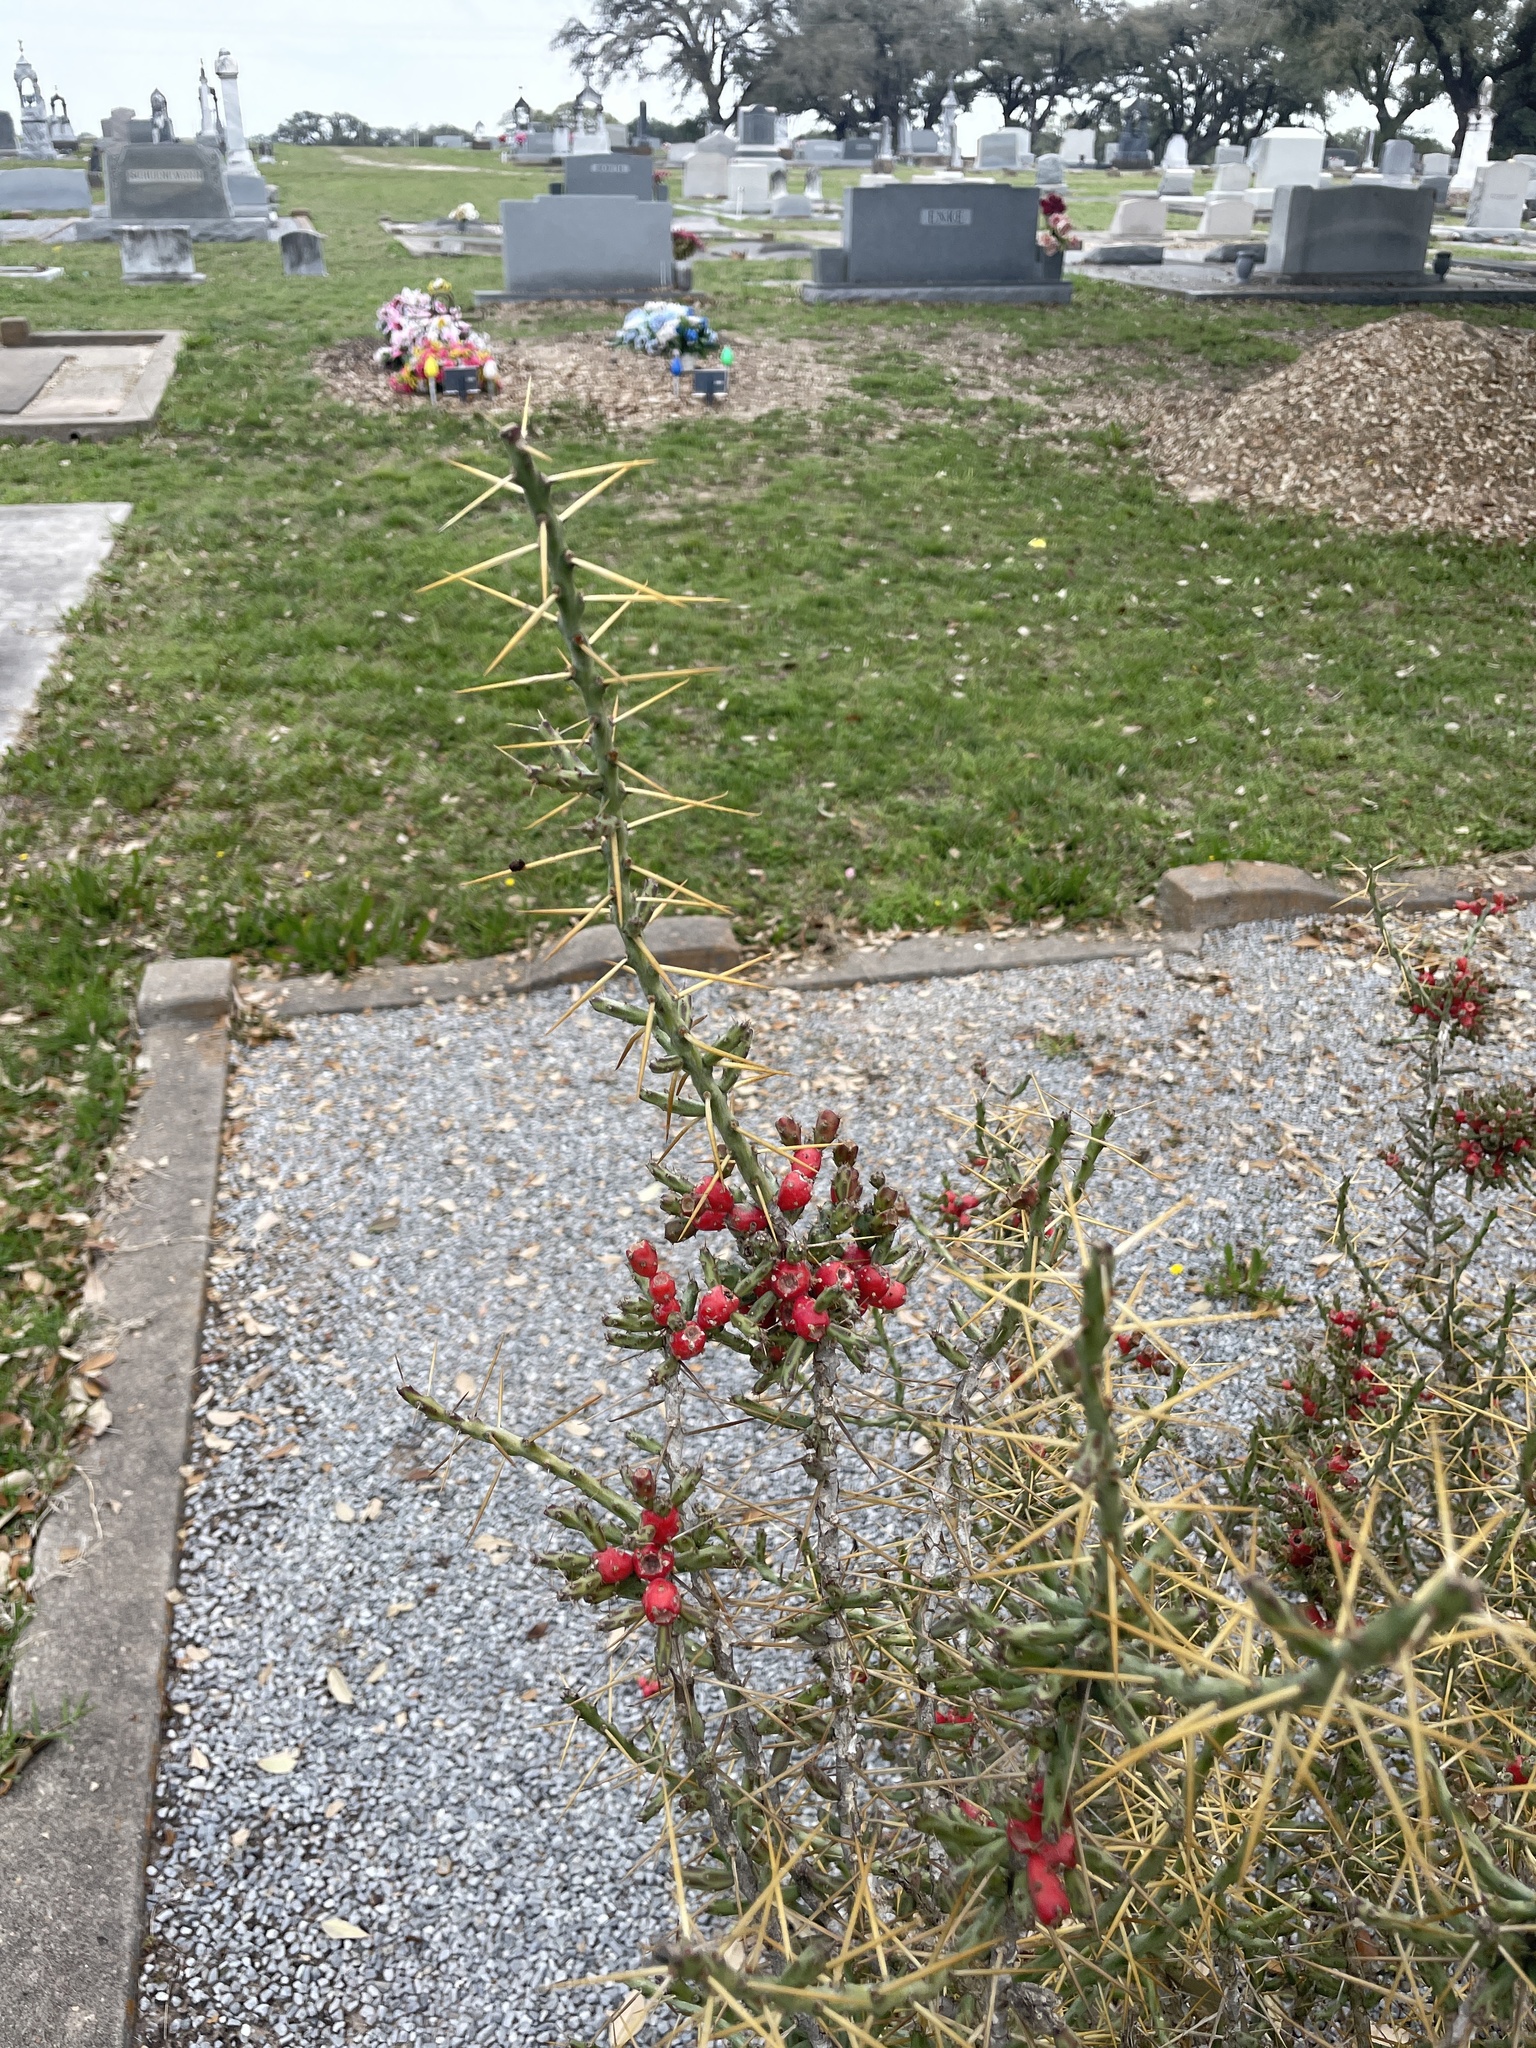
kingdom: Plantae
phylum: Tracheophyta
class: Magnoliopsida
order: Caryophyllales
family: Cactaceae
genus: Cylindropuntia
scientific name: Cylindropuntia leptocaulis
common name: Christmas cactus
